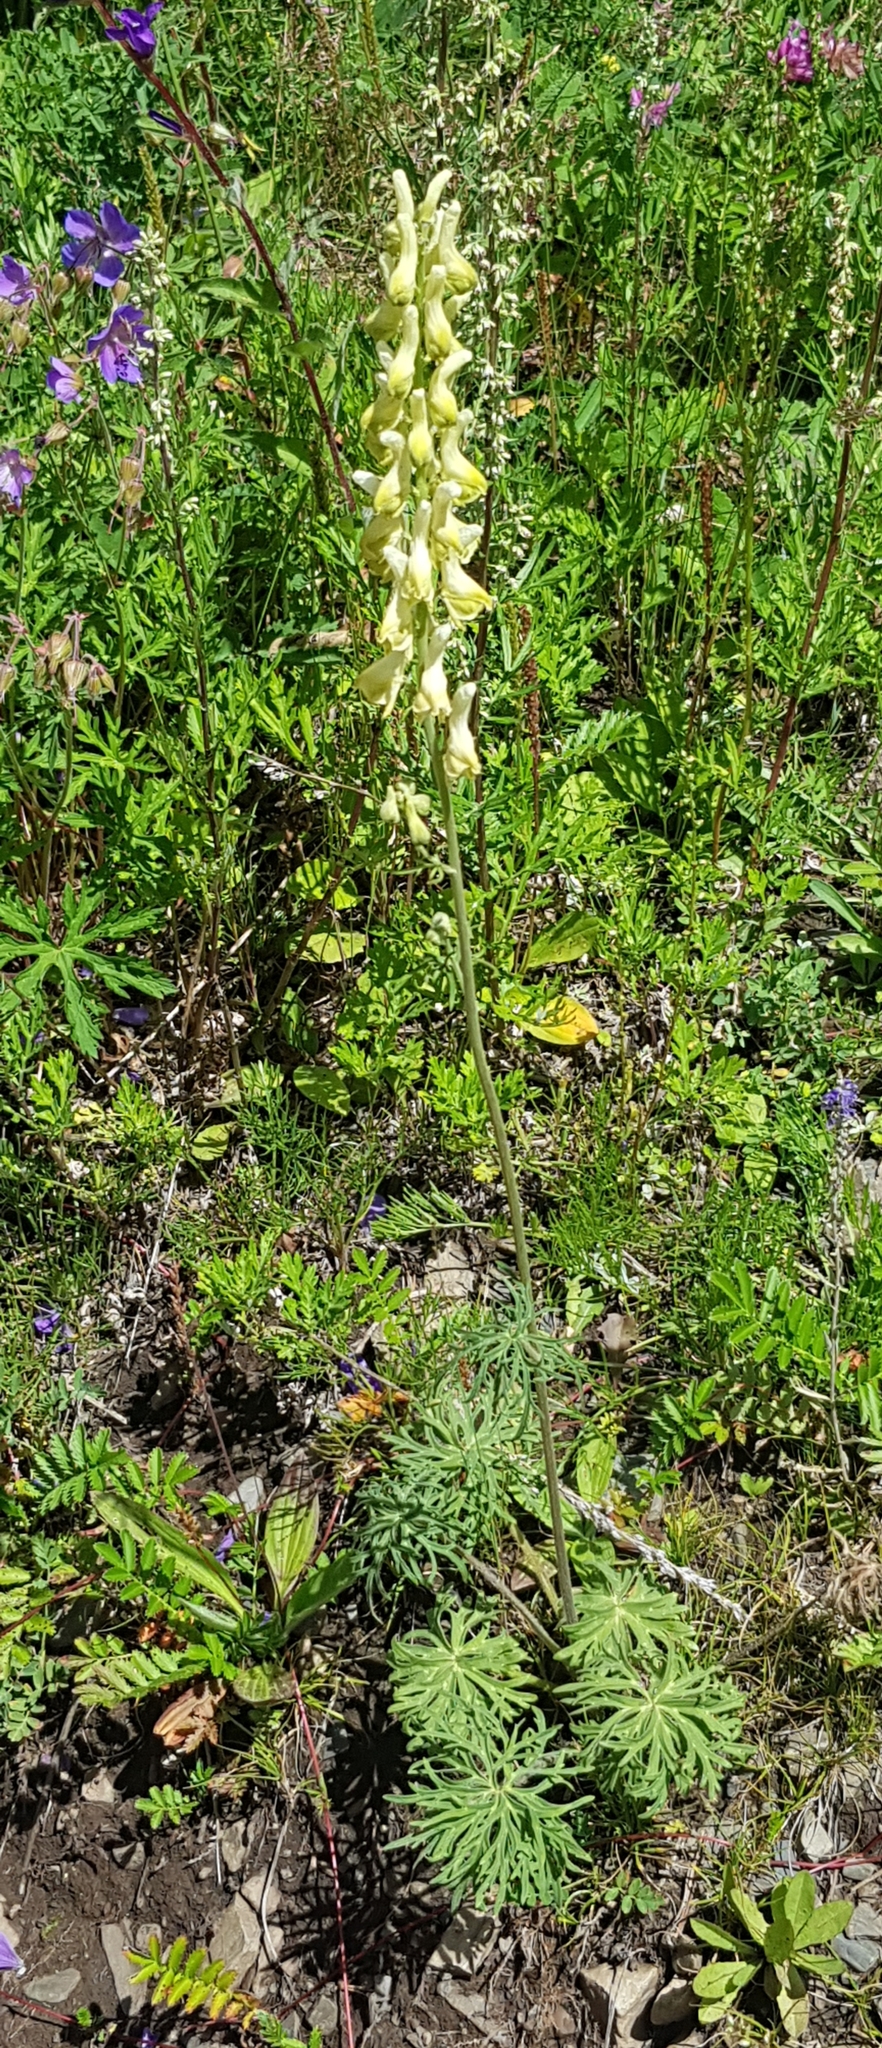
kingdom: Plantae
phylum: Tracheophyta
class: Magnoliopsida
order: Ranunculales
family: Ranunculaceae
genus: Aconitum
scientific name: Aconitum barbatum
